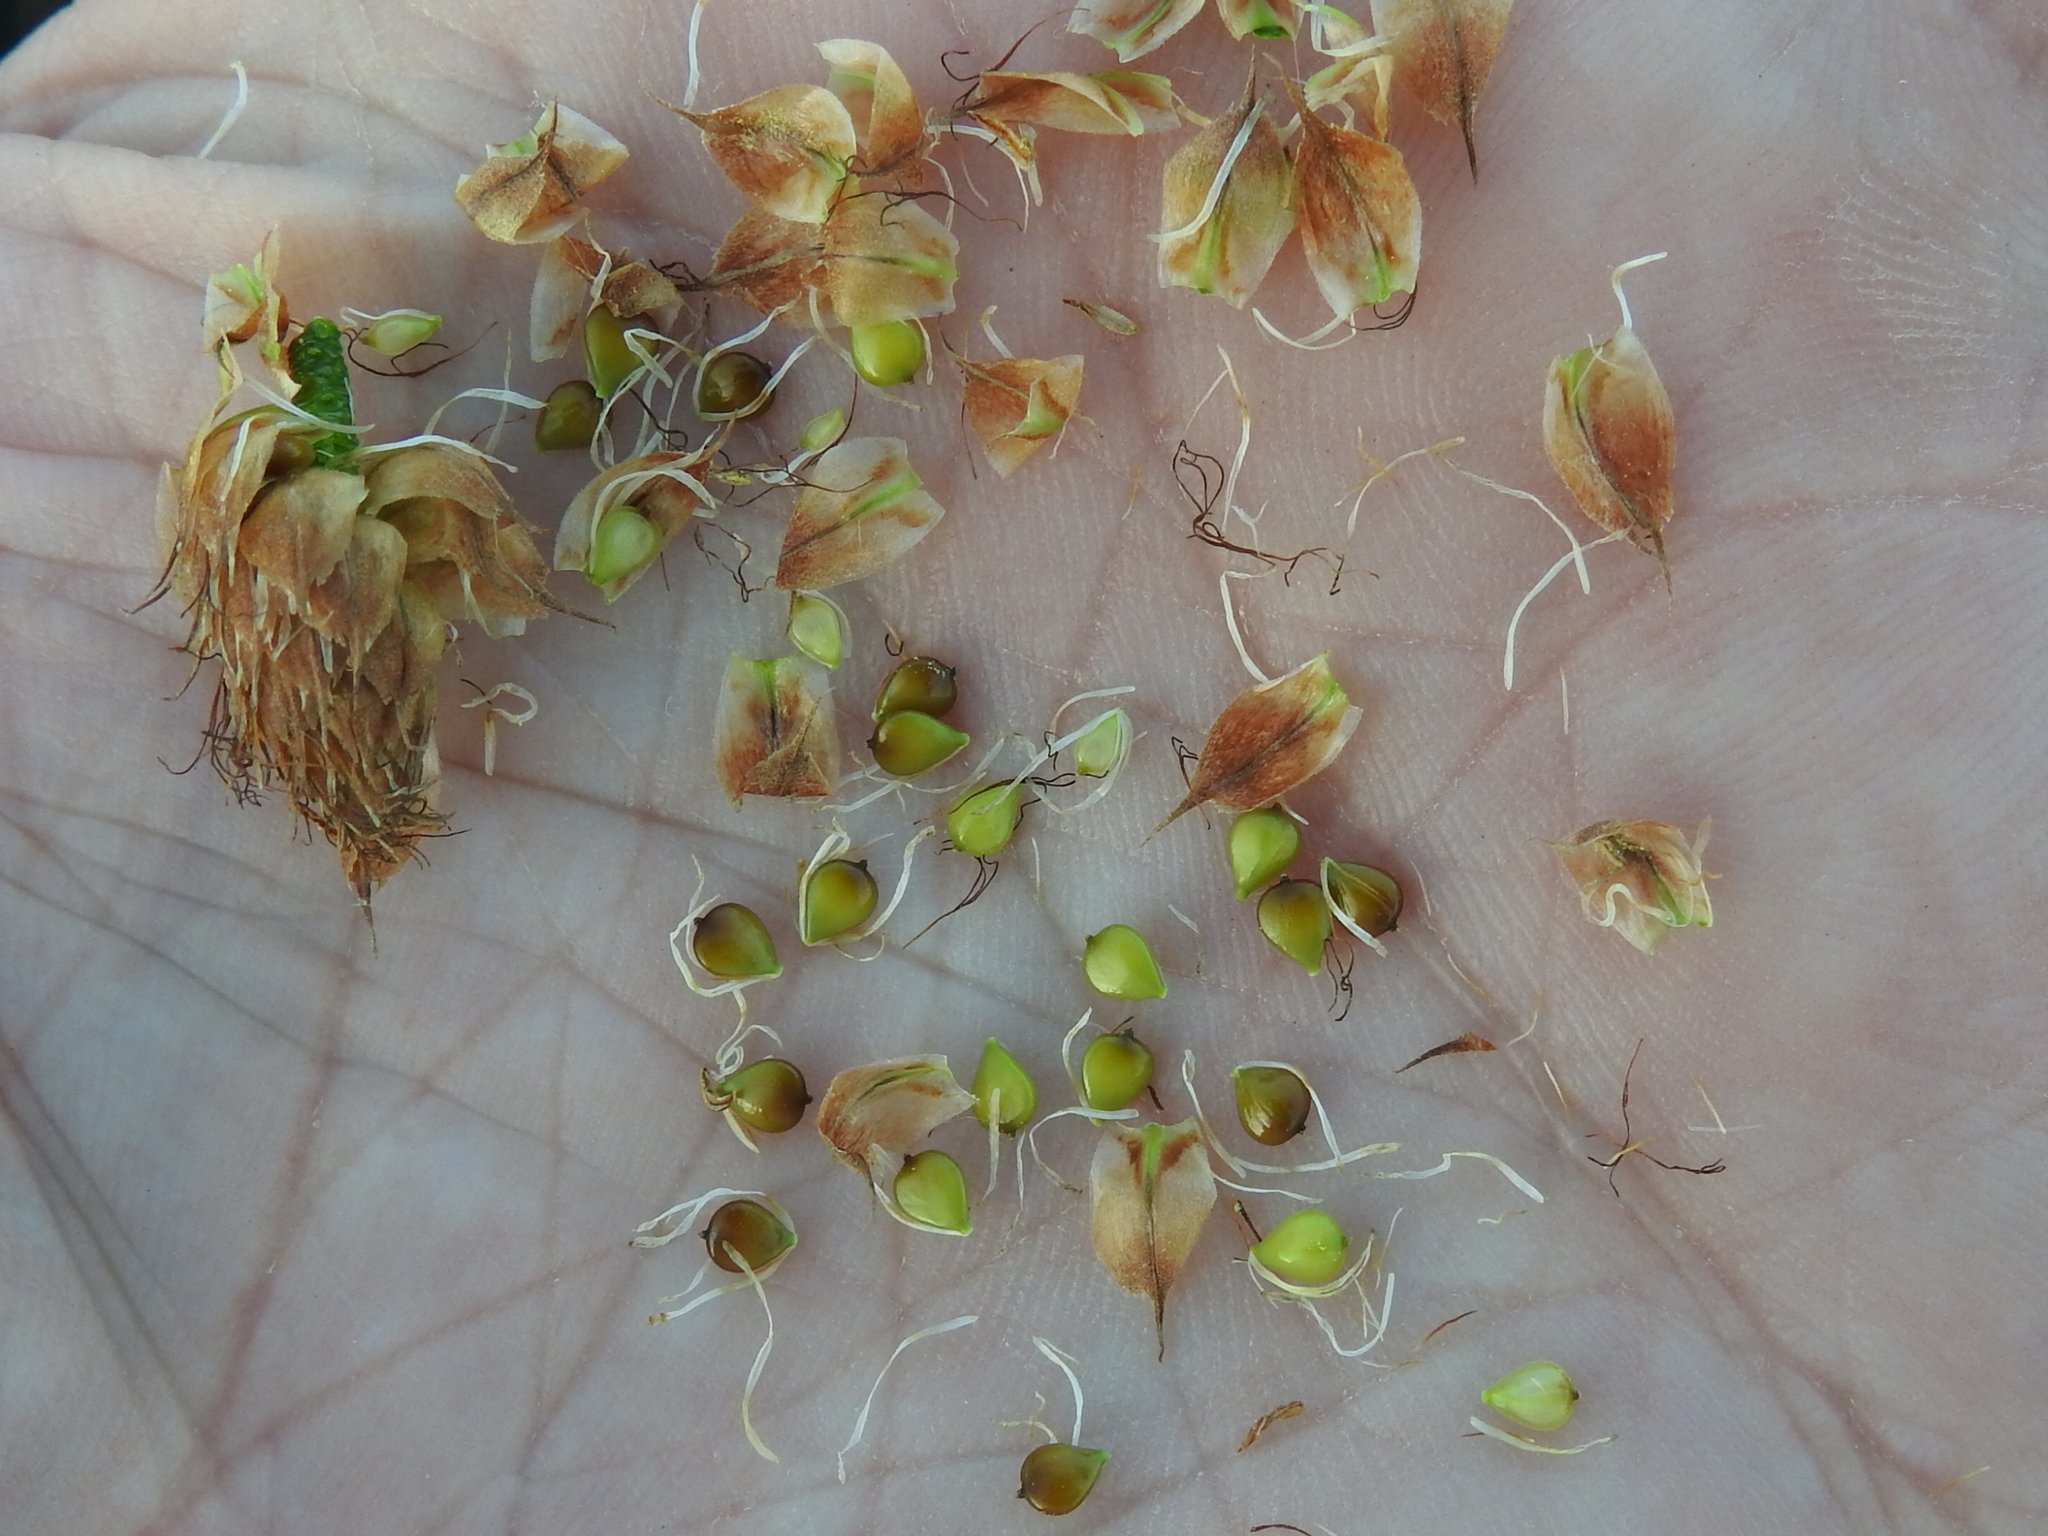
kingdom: Plantae
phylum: Tracheophyta
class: Liliopsida
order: Poales
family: Cyperaceae
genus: Bolboschoenus
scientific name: Bolboschoenus robustus
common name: Seacoast bulrush
